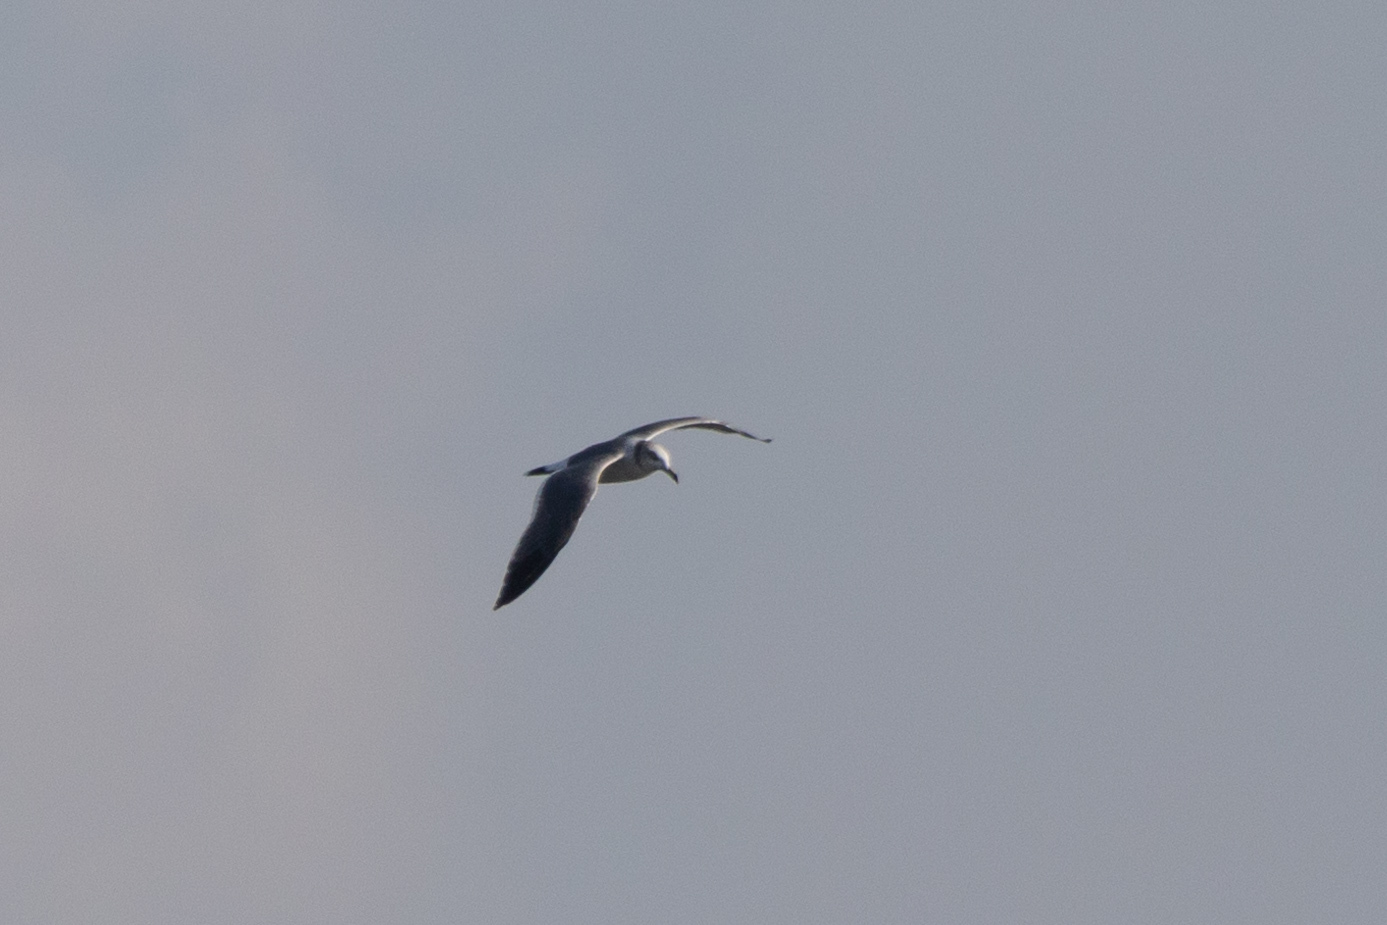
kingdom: Animalia
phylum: Chordata
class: Aves
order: Charadriiformes
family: Laridae
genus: Larus
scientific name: Larus crassirostris
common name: Black-tailed gull
